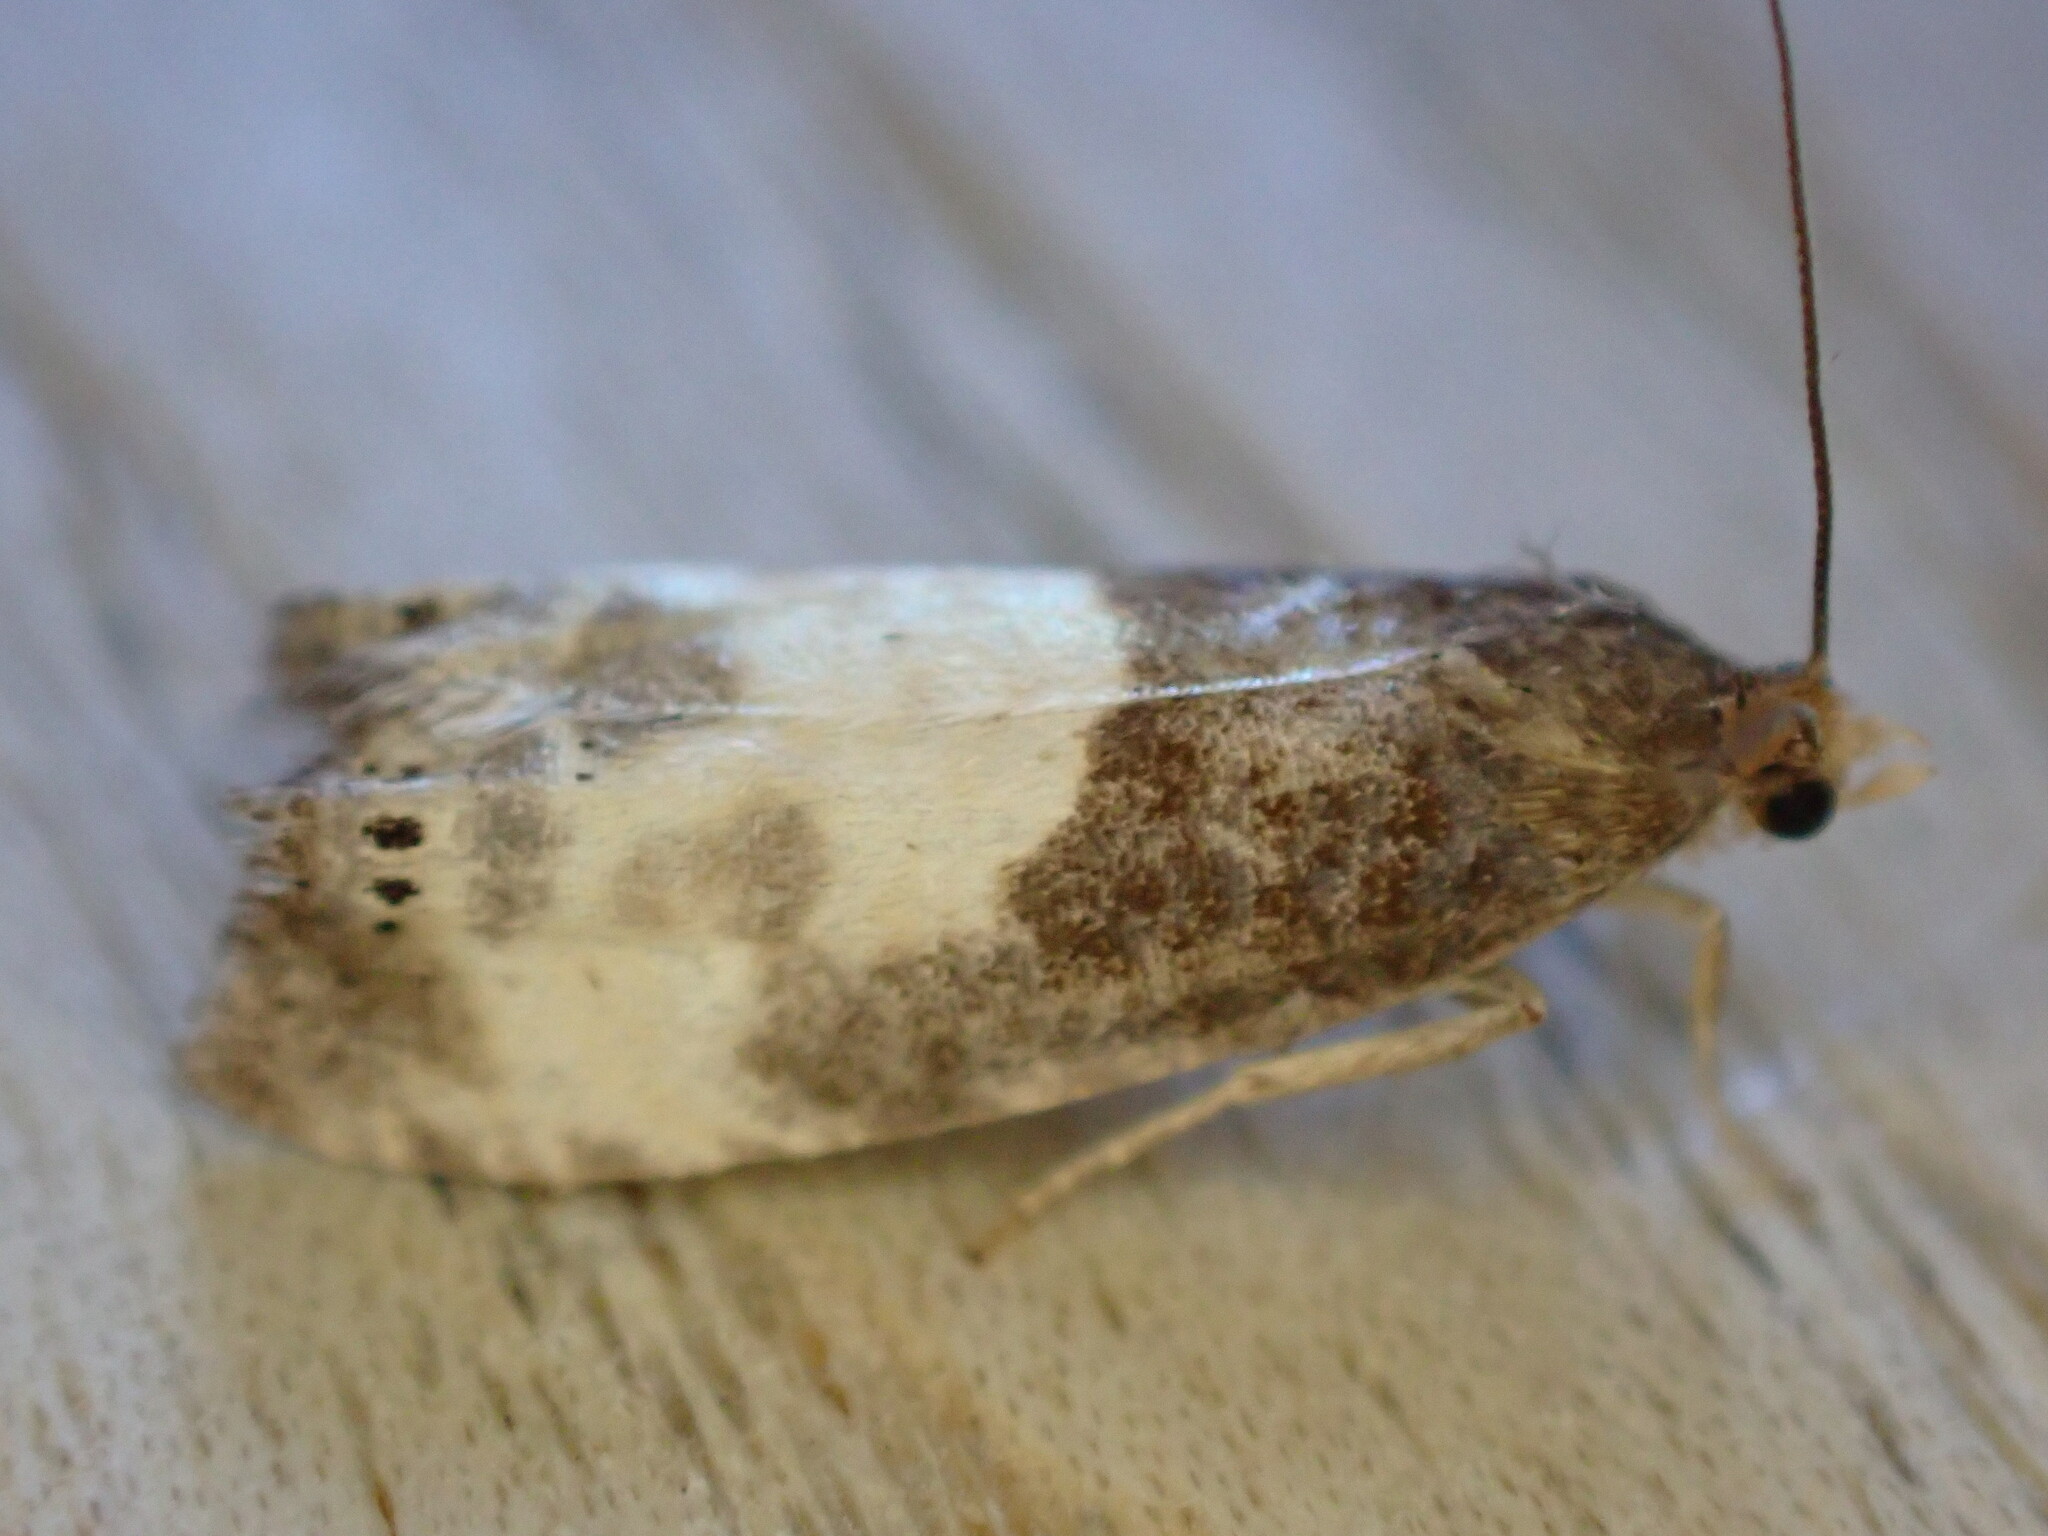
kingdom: Animalia
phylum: Arthropoda
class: Insecta
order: Lepidoptera
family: Tortricidae
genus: Notocelia
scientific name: Notocelia cynosbatella
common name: Yellow-faced bell moth
